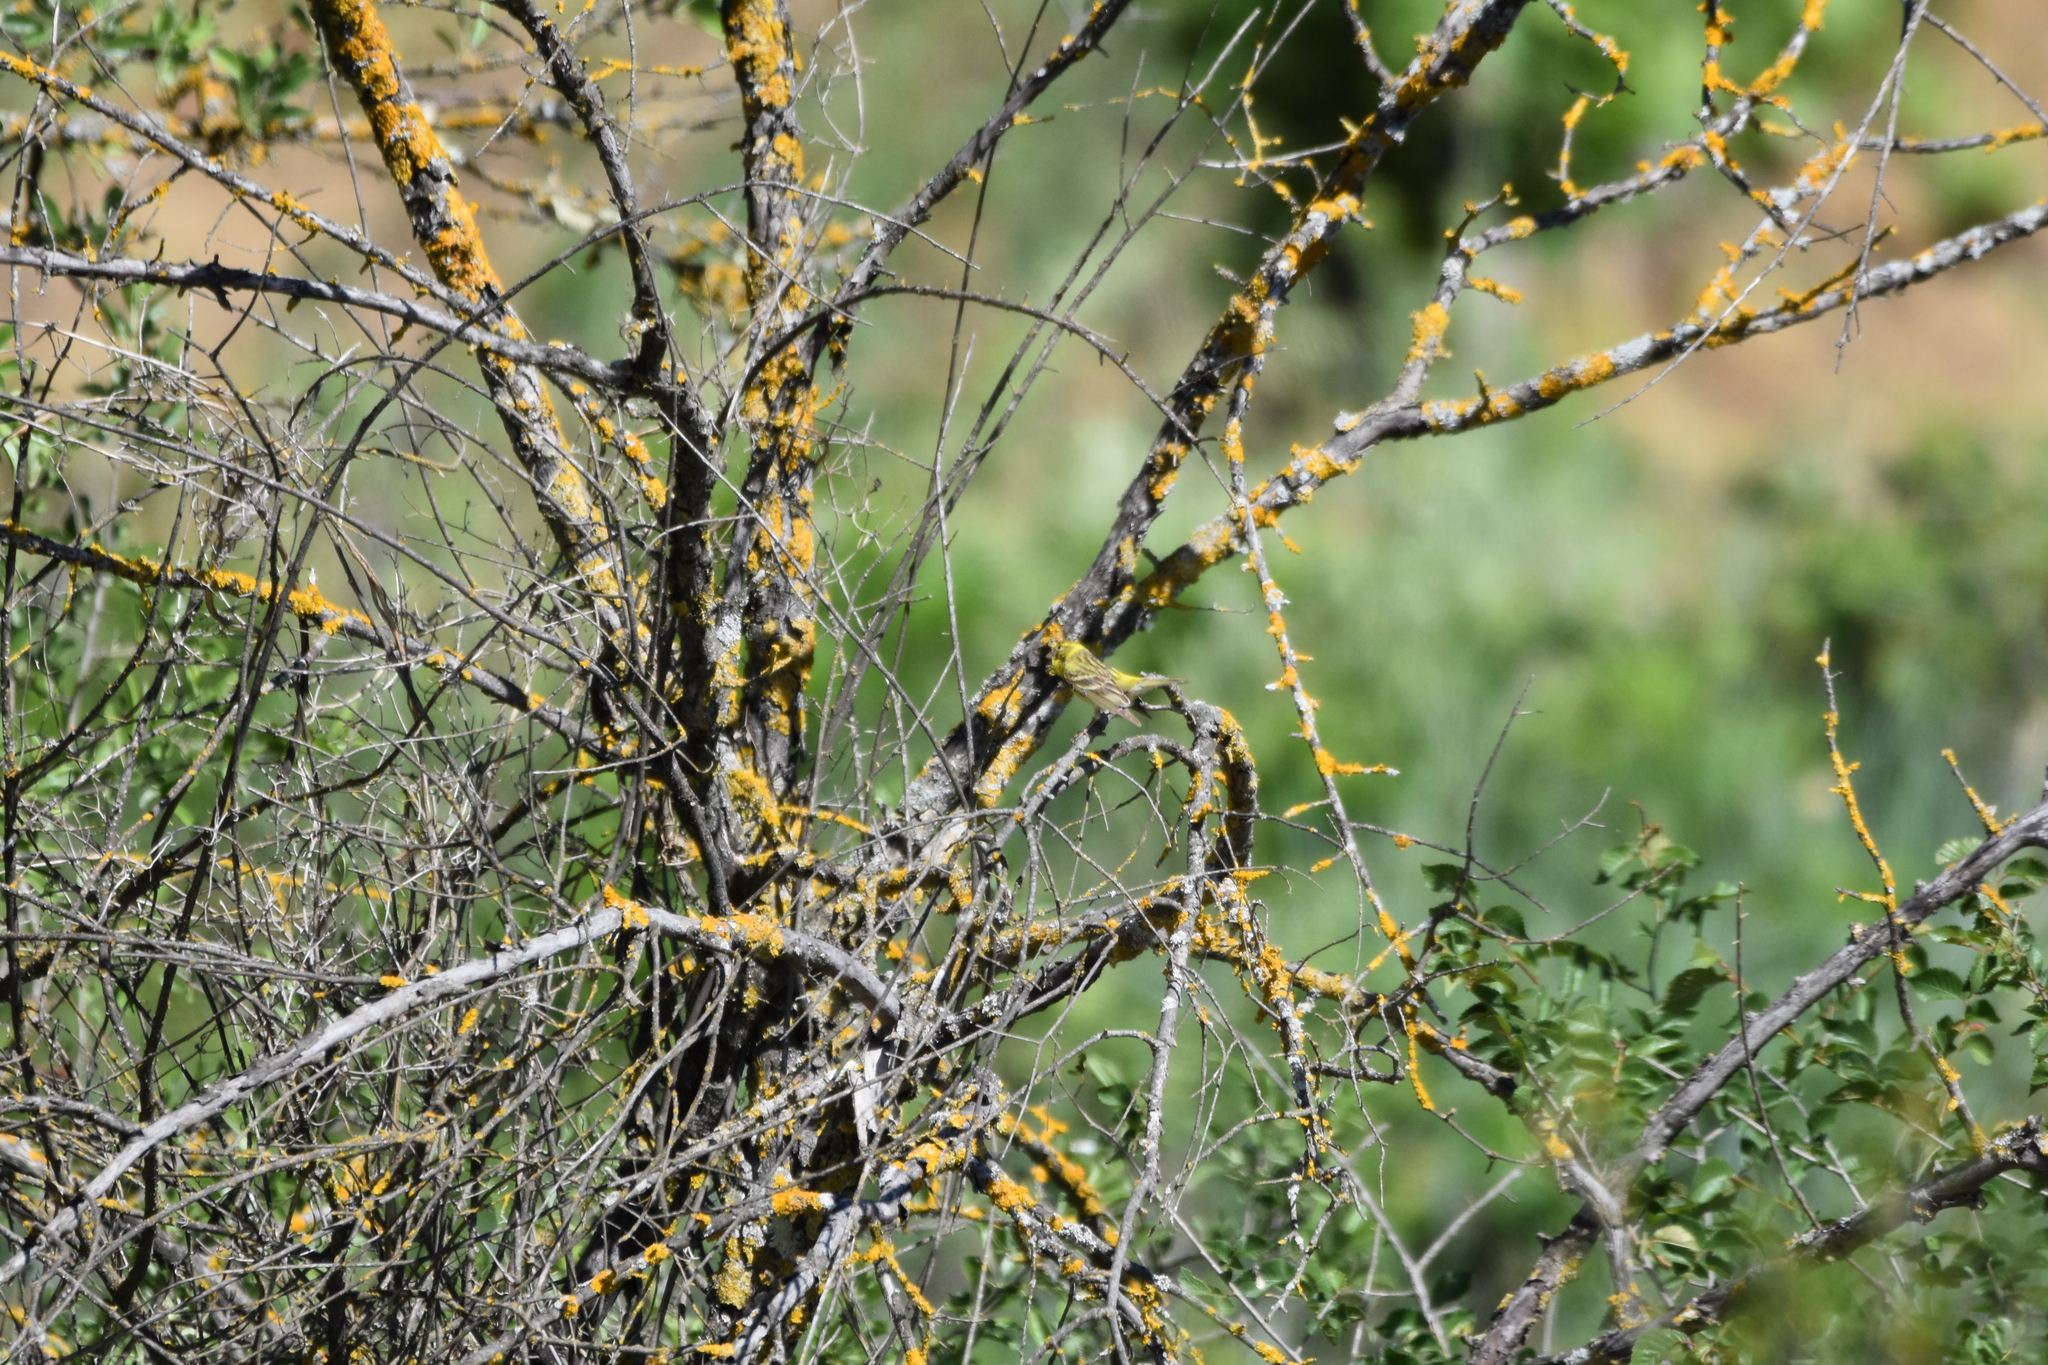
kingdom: Animalia
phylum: Chordata
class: Aves
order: Passeriformes
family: Fringillidae
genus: Serinus
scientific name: Serinus serinus
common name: European serin
